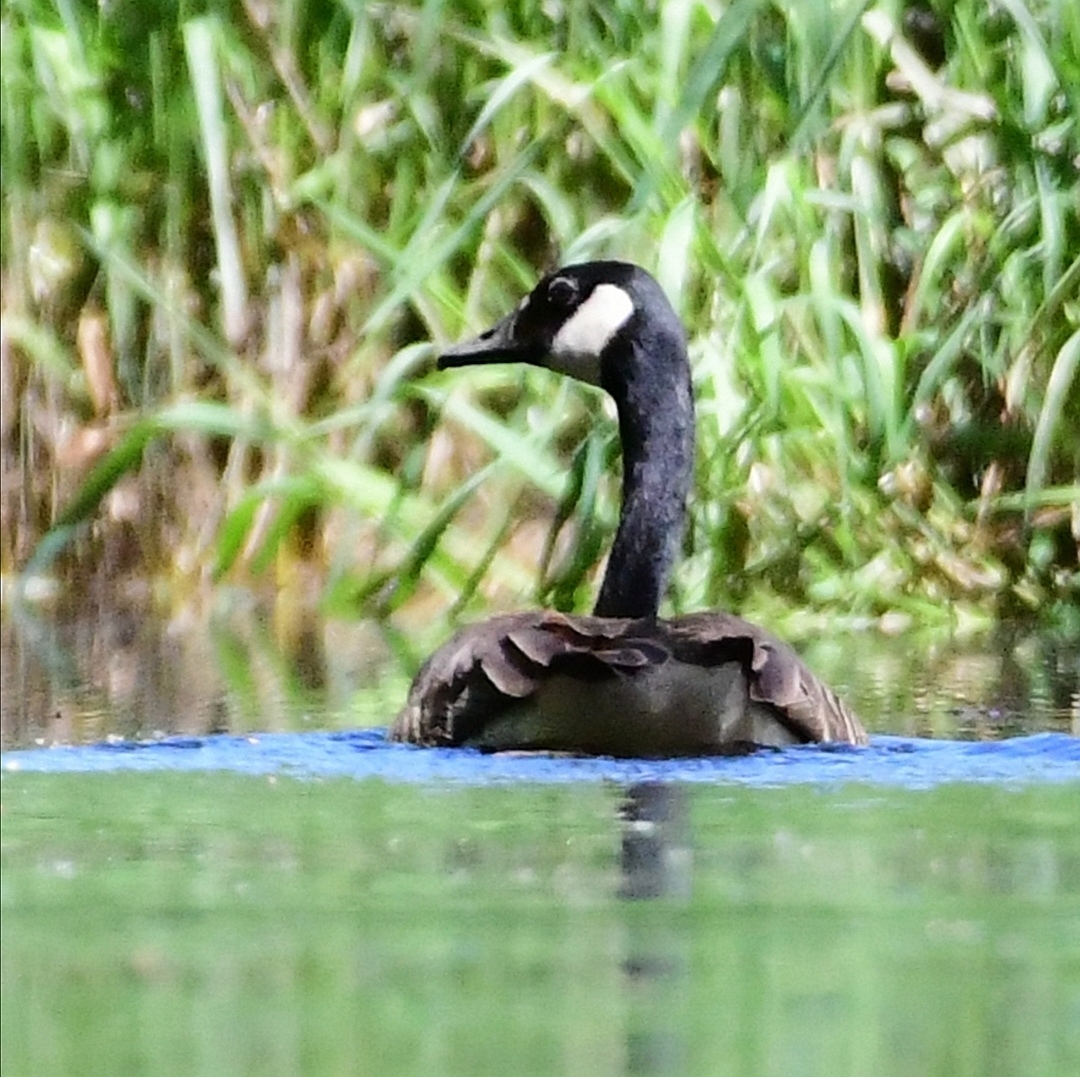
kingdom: Animalia
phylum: Chordata
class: Aves
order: Anseriformes
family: Anatidae
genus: Branta
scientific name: Branta canadensis
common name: Canada goose
